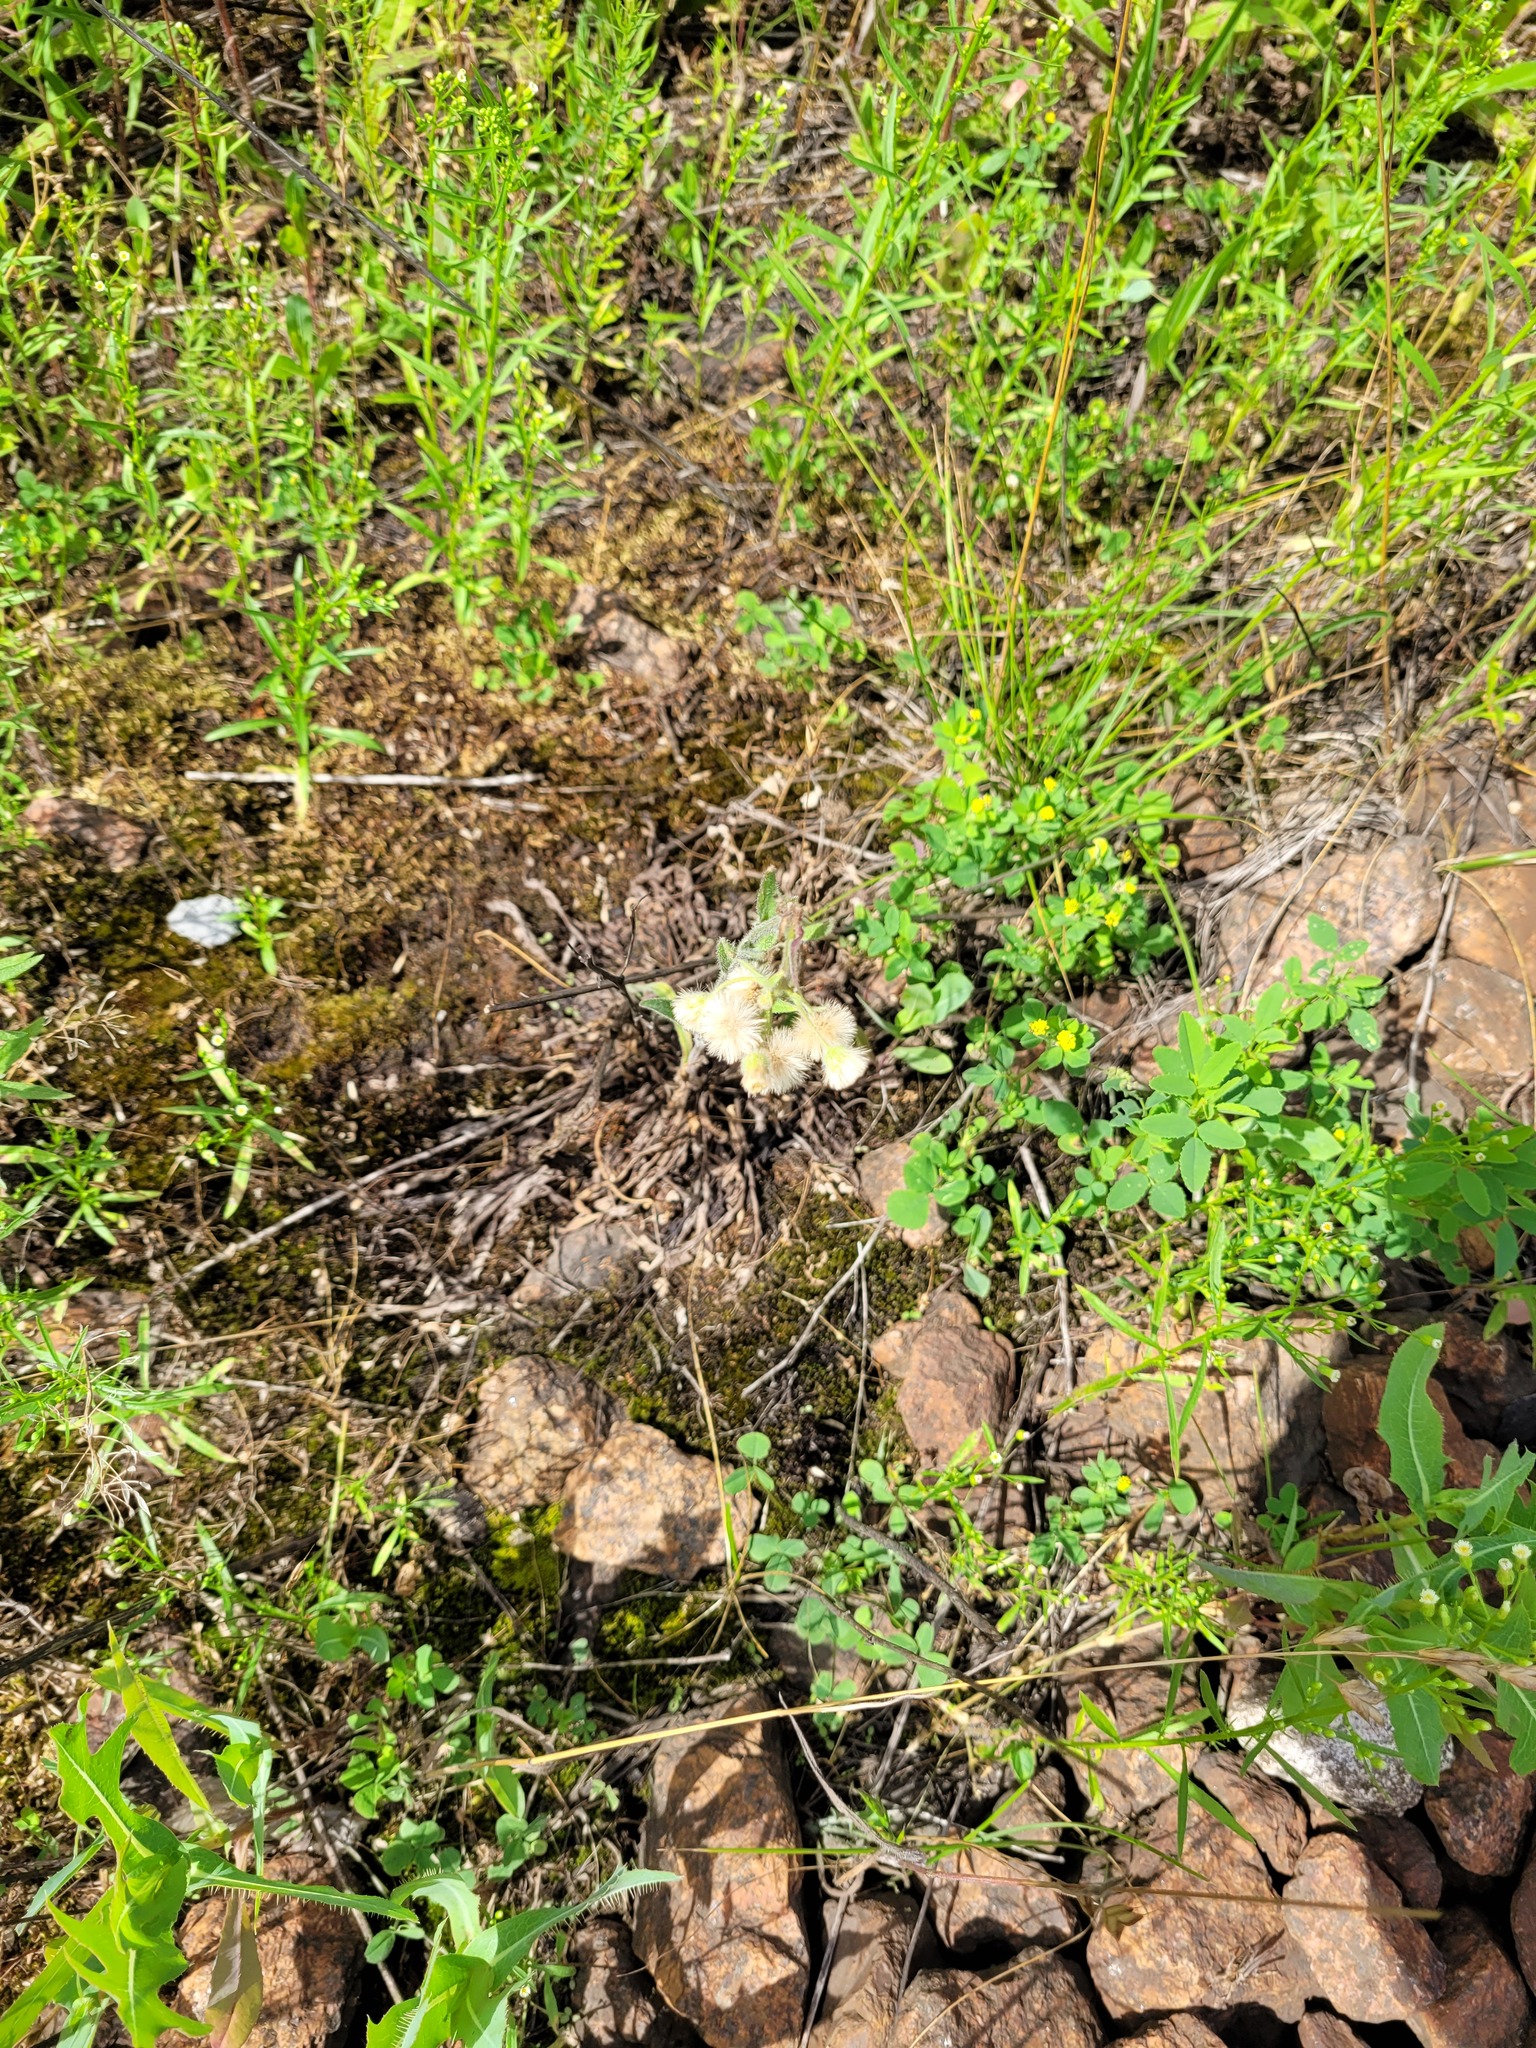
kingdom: Plantae
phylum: Tracheophyta
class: Magnoliopsida
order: Asterales
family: Asteraceae
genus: Erigeron
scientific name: Erigeron acris
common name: Blue fleabane
